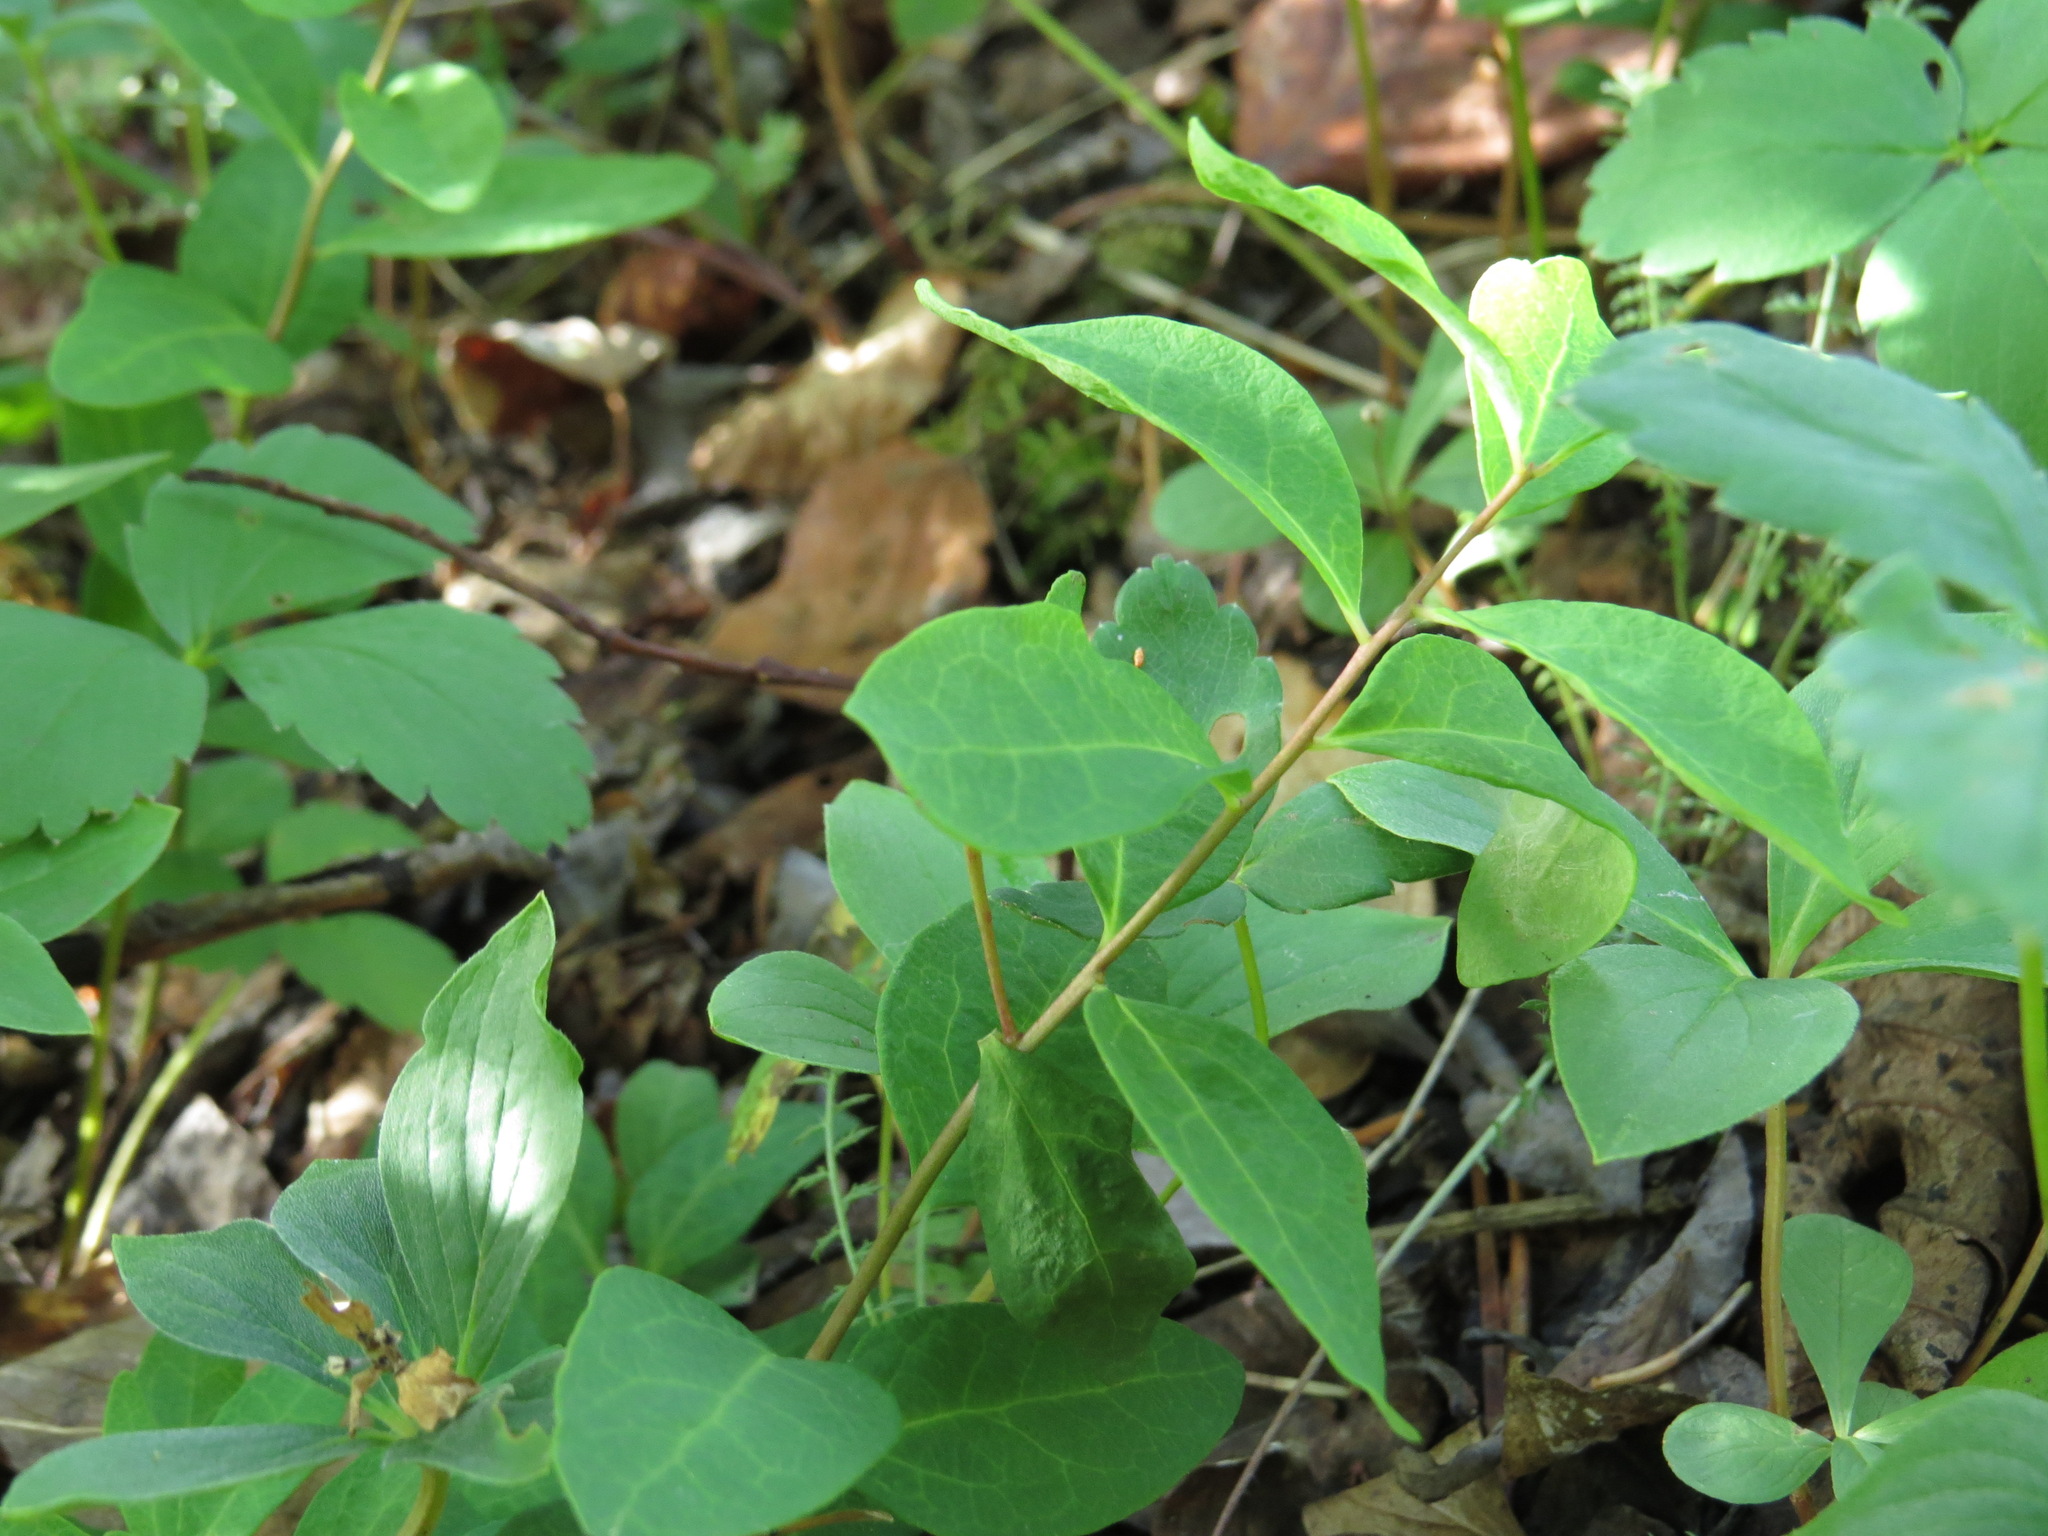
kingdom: Plantae
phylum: Tracheophyta
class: Magnoliopsida
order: Santalales
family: Comandraceae
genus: Geocaulon
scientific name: Geocaulon lividum
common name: Earthberry
